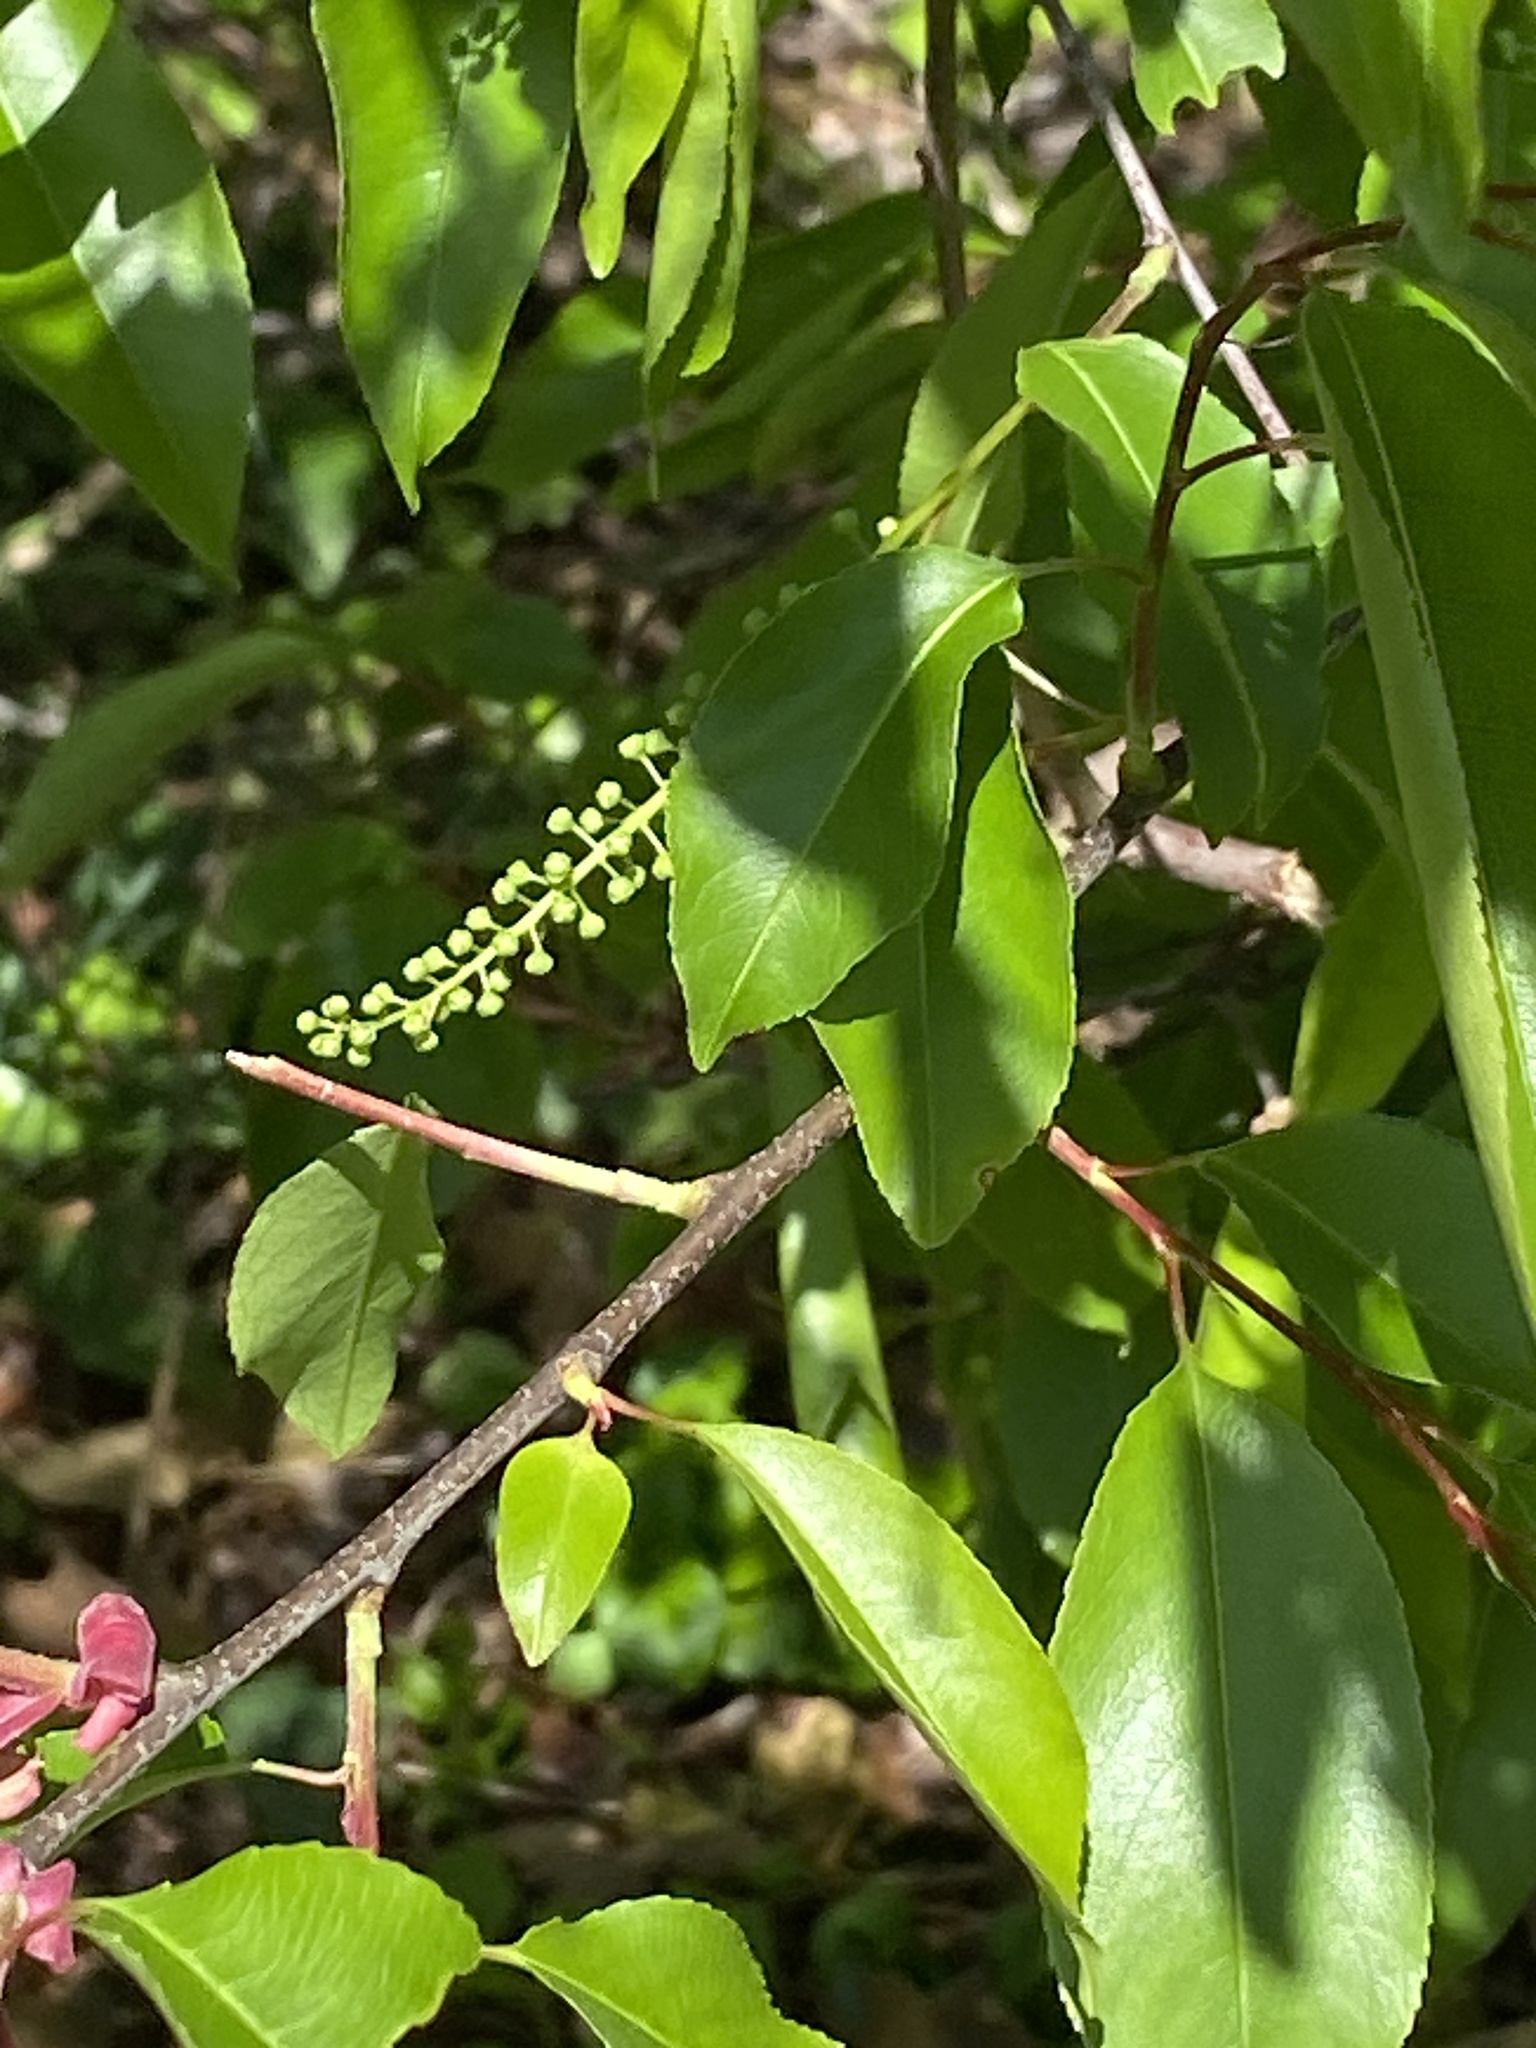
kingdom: Plantae
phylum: Tracheophyta
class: Magnoliopsida
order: Rosales
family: Rosaceae
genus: Prunus
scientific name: Prunus serotina
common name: Black cherry
